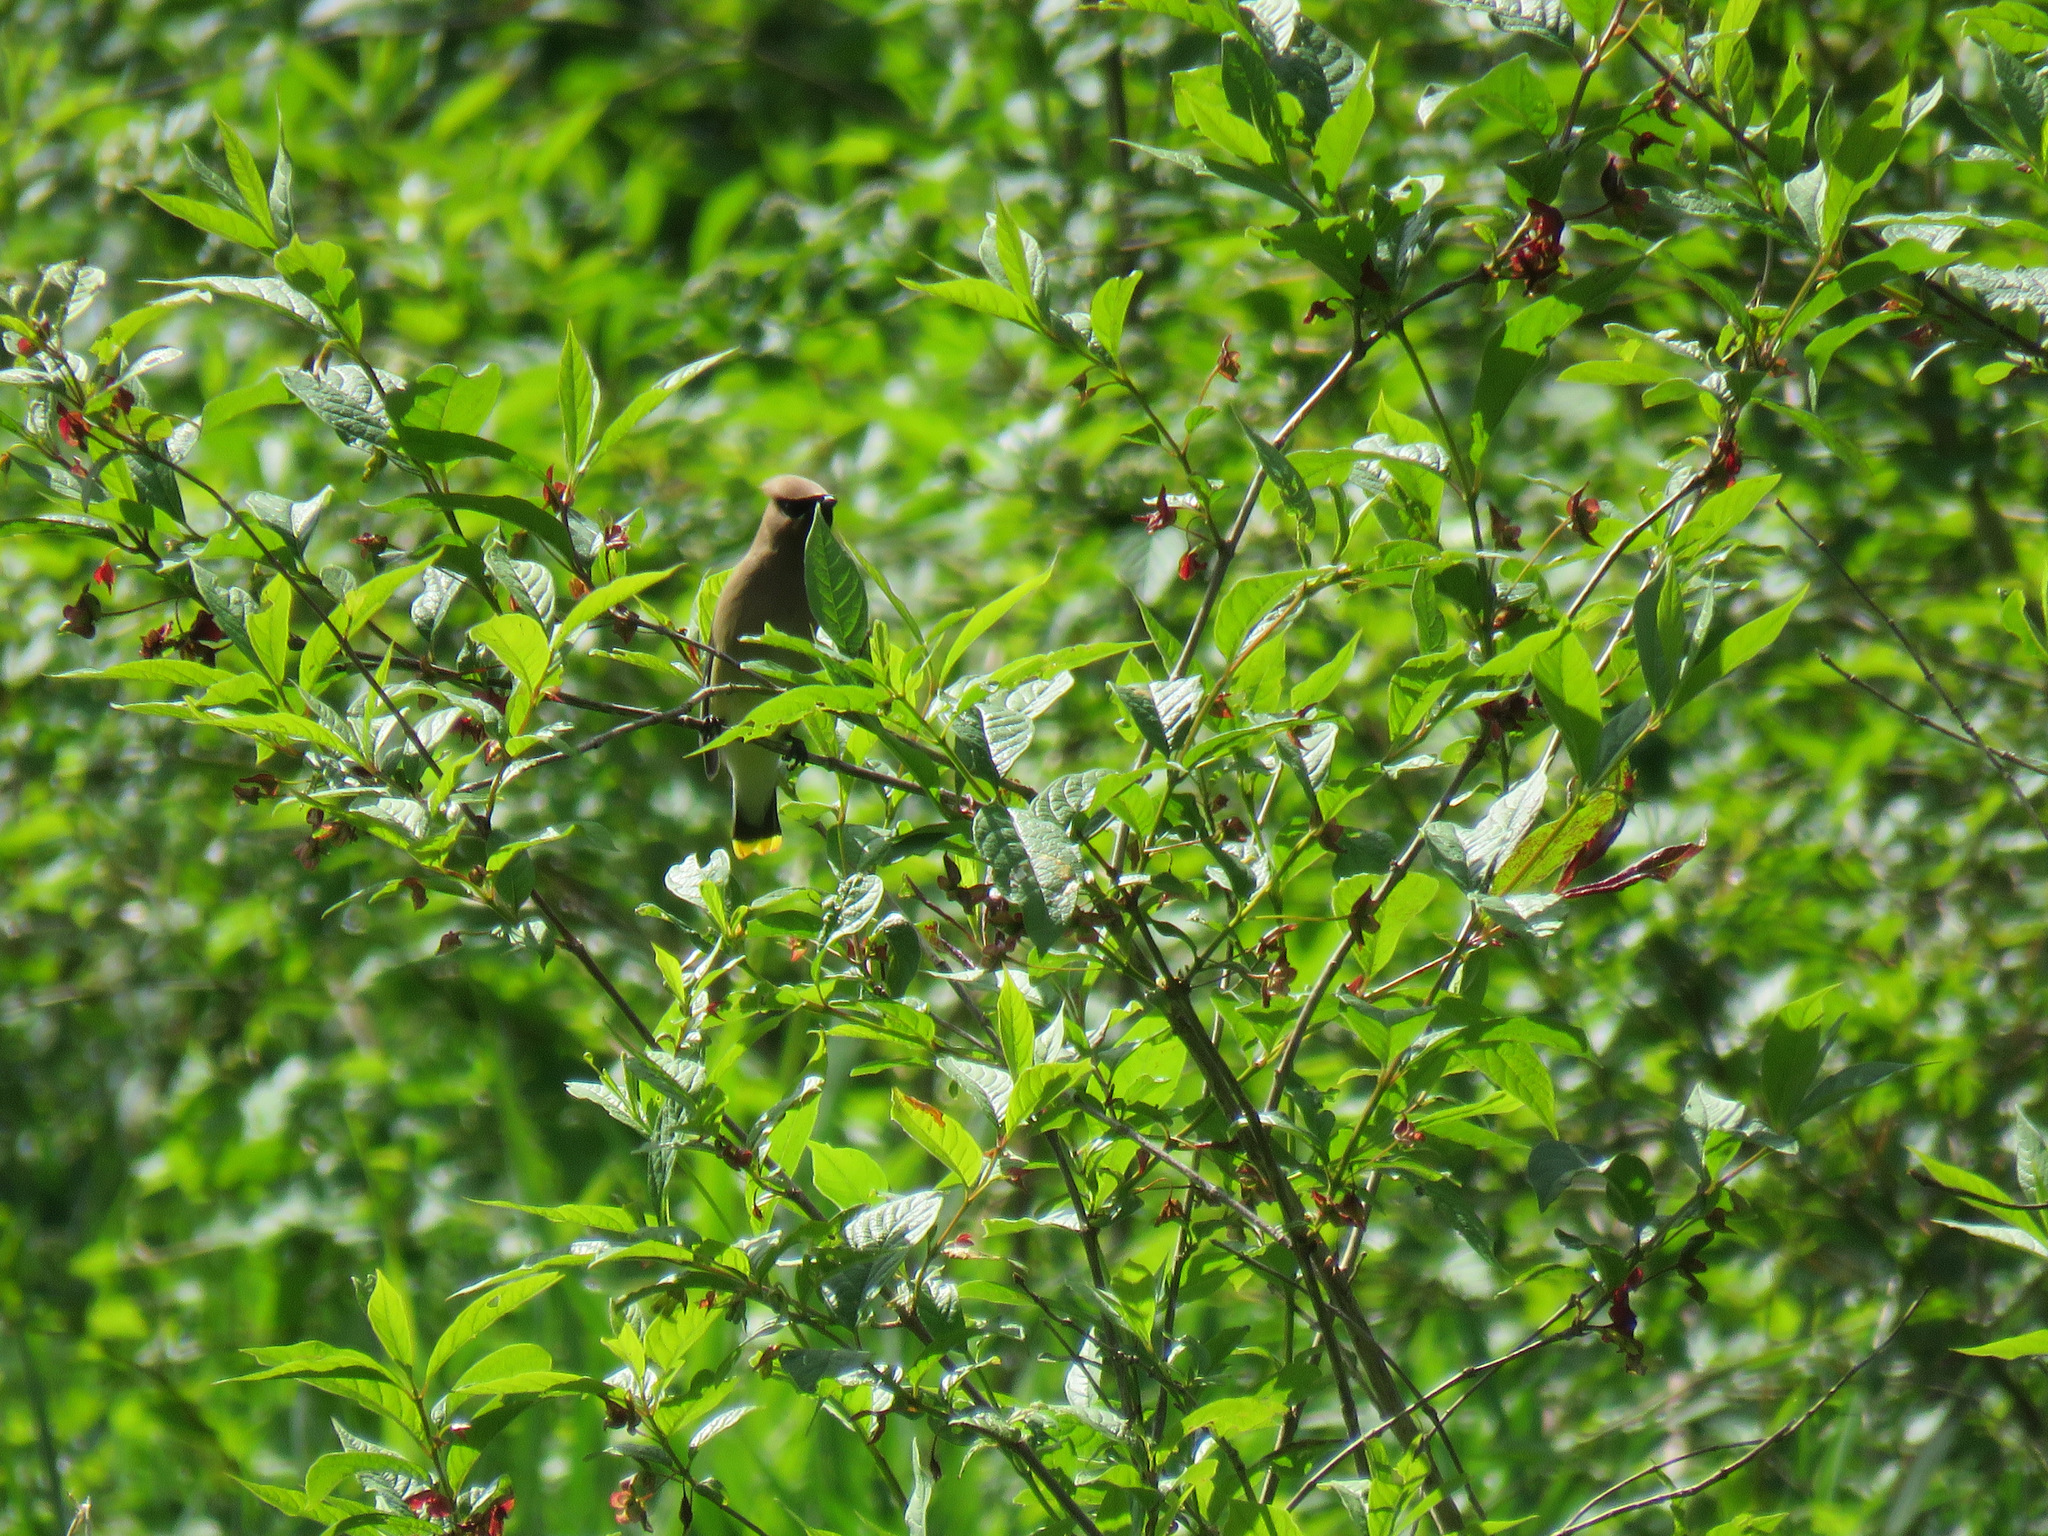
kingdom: Animalia
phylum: Chordata
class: Aves
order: Passeriformes
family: Bombycillidae
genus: Bombycilla
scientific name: Bombycilla cedrorum
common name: Cedar waxwing
